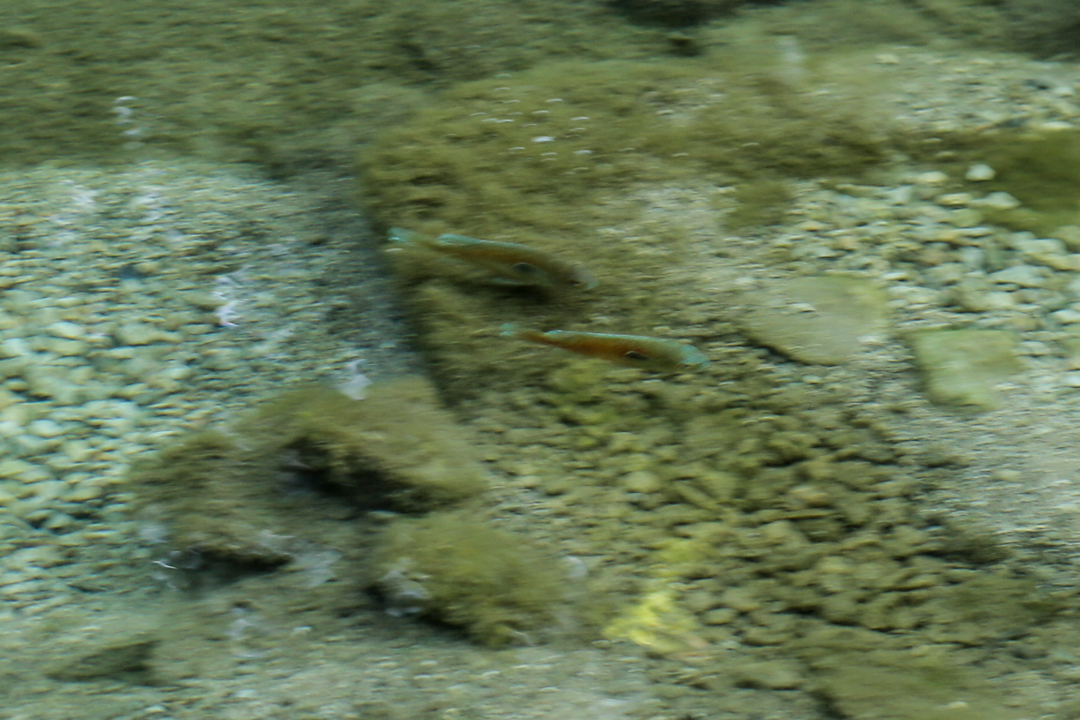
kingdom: Animalia
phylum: Chordata
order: Perciformes
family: Centrarchidae
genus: Lepomis
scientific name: Lepomis megalotis
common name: Longear sunfish
